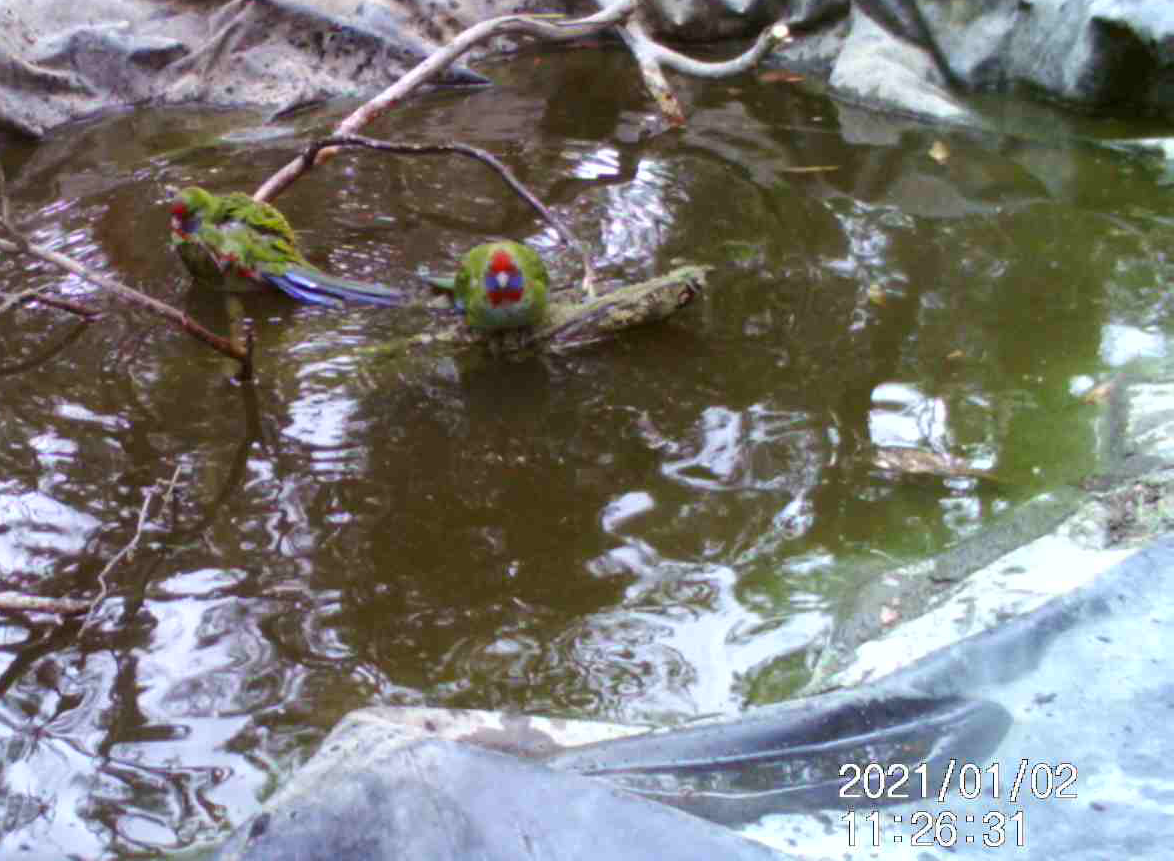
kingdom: Animalia
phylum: Chordata
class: Aves
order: Psittaciformes
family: Psittacidae
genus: Platycercus
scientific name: Platycercus elegans
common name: Crimson rosella
